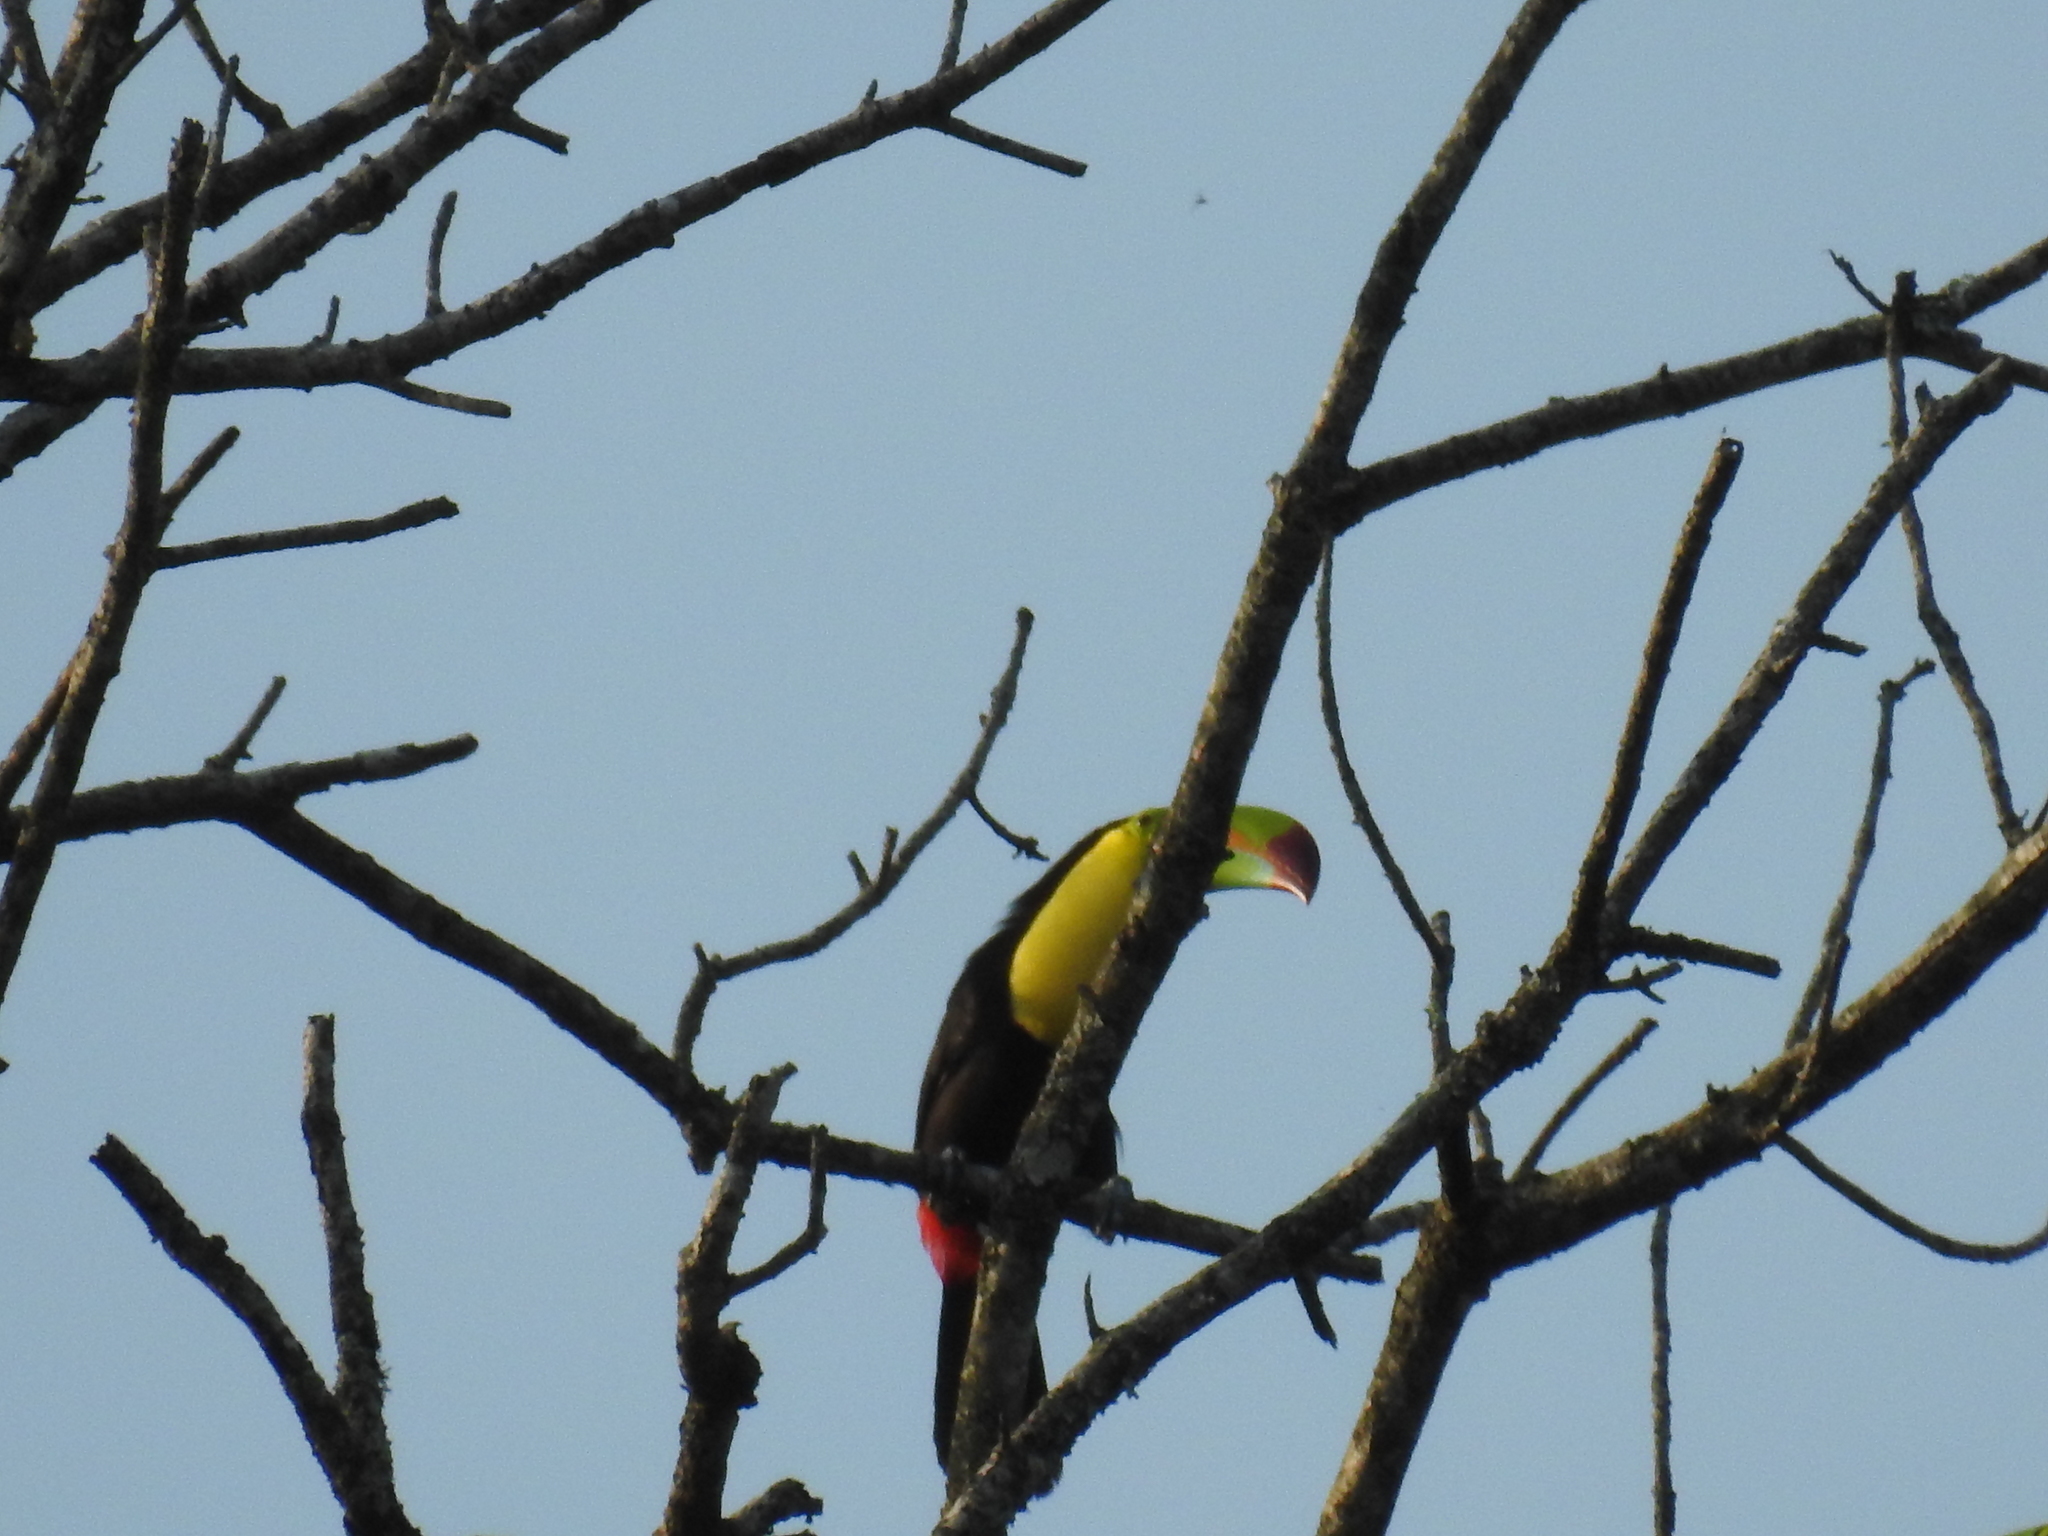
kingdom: Animalia
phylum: Chordata
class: Aves
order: Piciformes
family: Ramphastidae
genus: Ramphastos
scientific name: Ramphastos sulfuratus
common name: Keel-billed toucan
